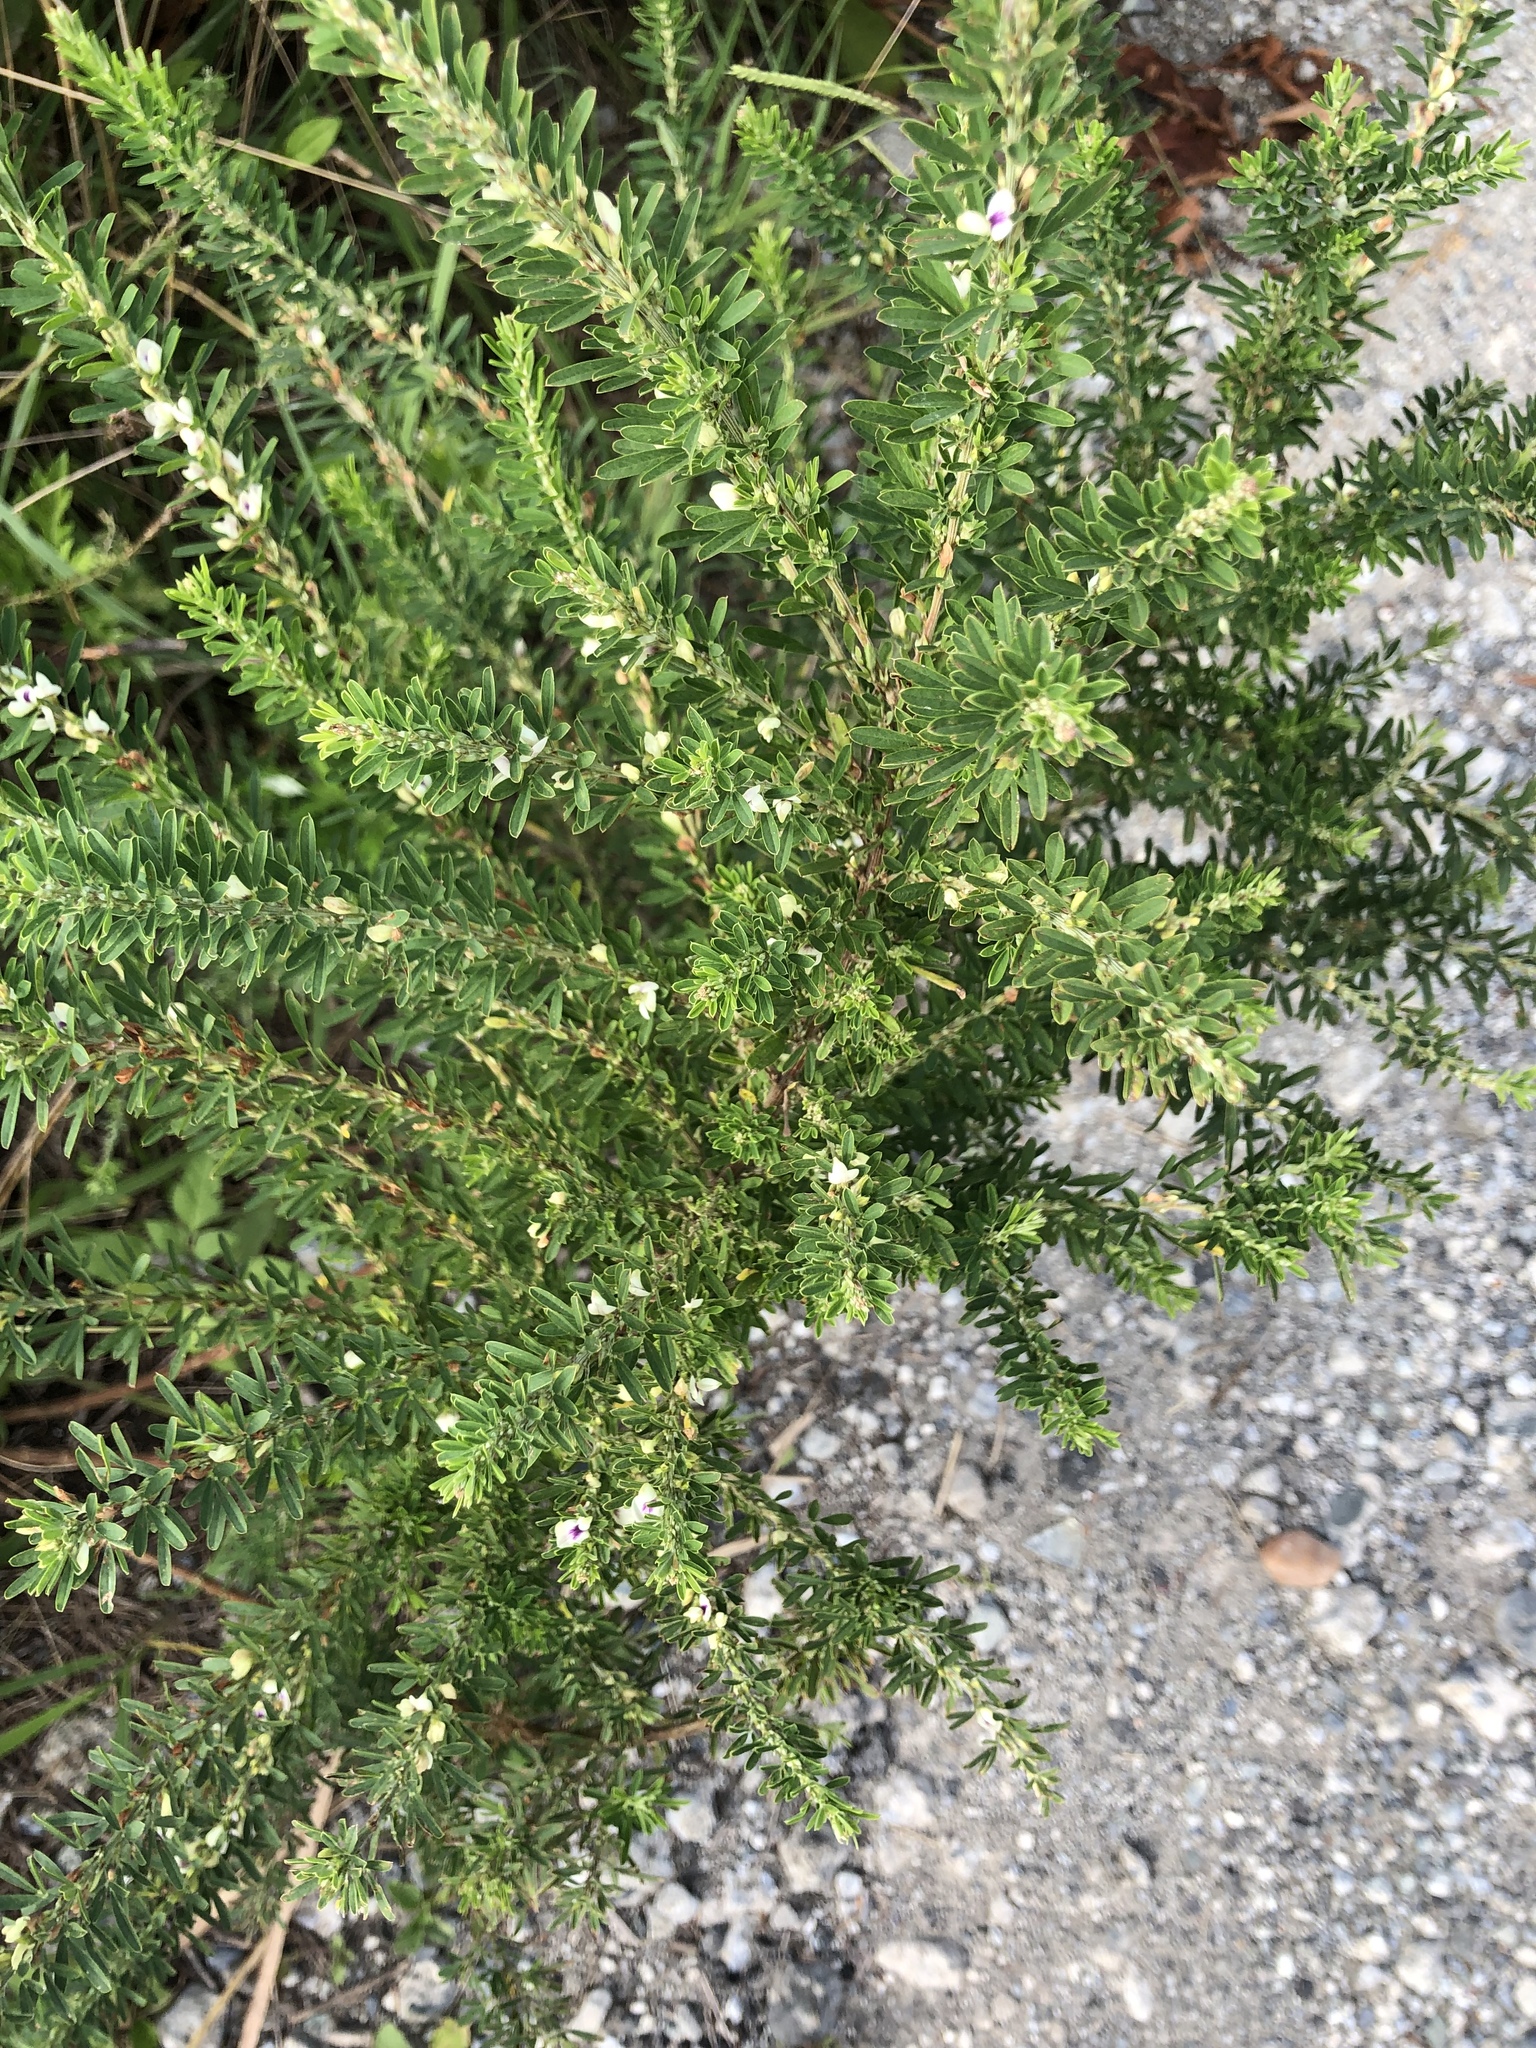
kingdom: Plantae
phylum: Tracheophyta
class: Magnoliopsida
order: Fabales
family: Fabaceae
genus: Lespedeza
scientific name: Lespedeza cuneata
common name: Chinese bush-clover
